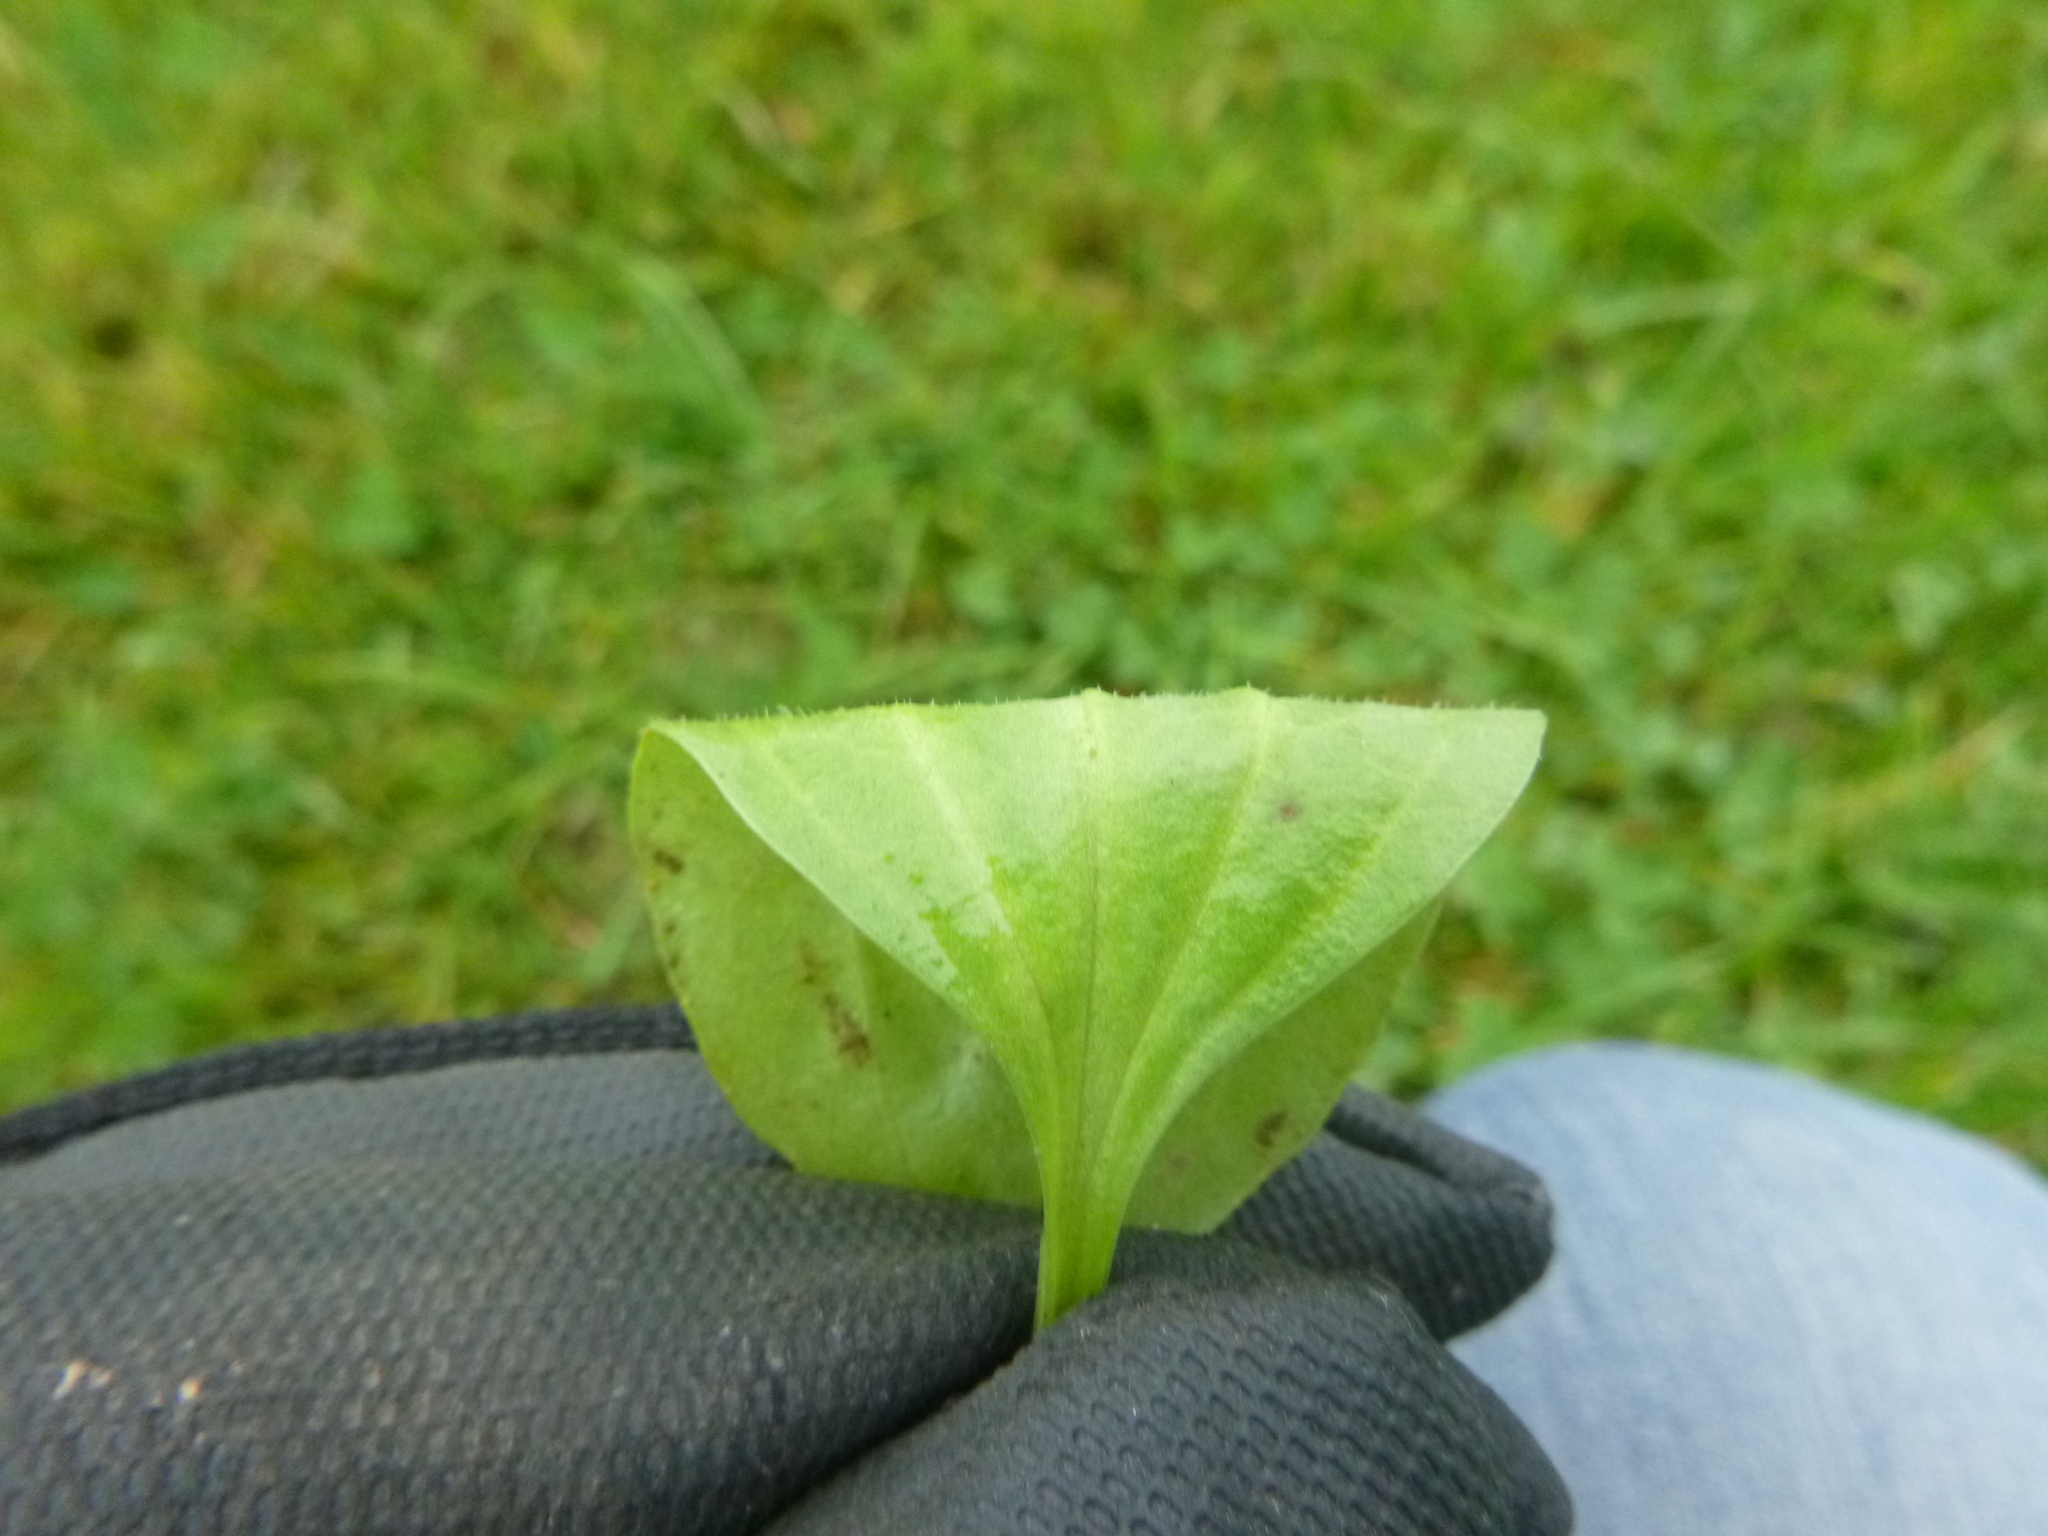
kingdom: Plantae
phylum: Tracheophyta
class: Magnoliopsida
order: Lamiales
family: Plantaginaceae
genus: Plantago
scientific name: Plantago uliginosa
